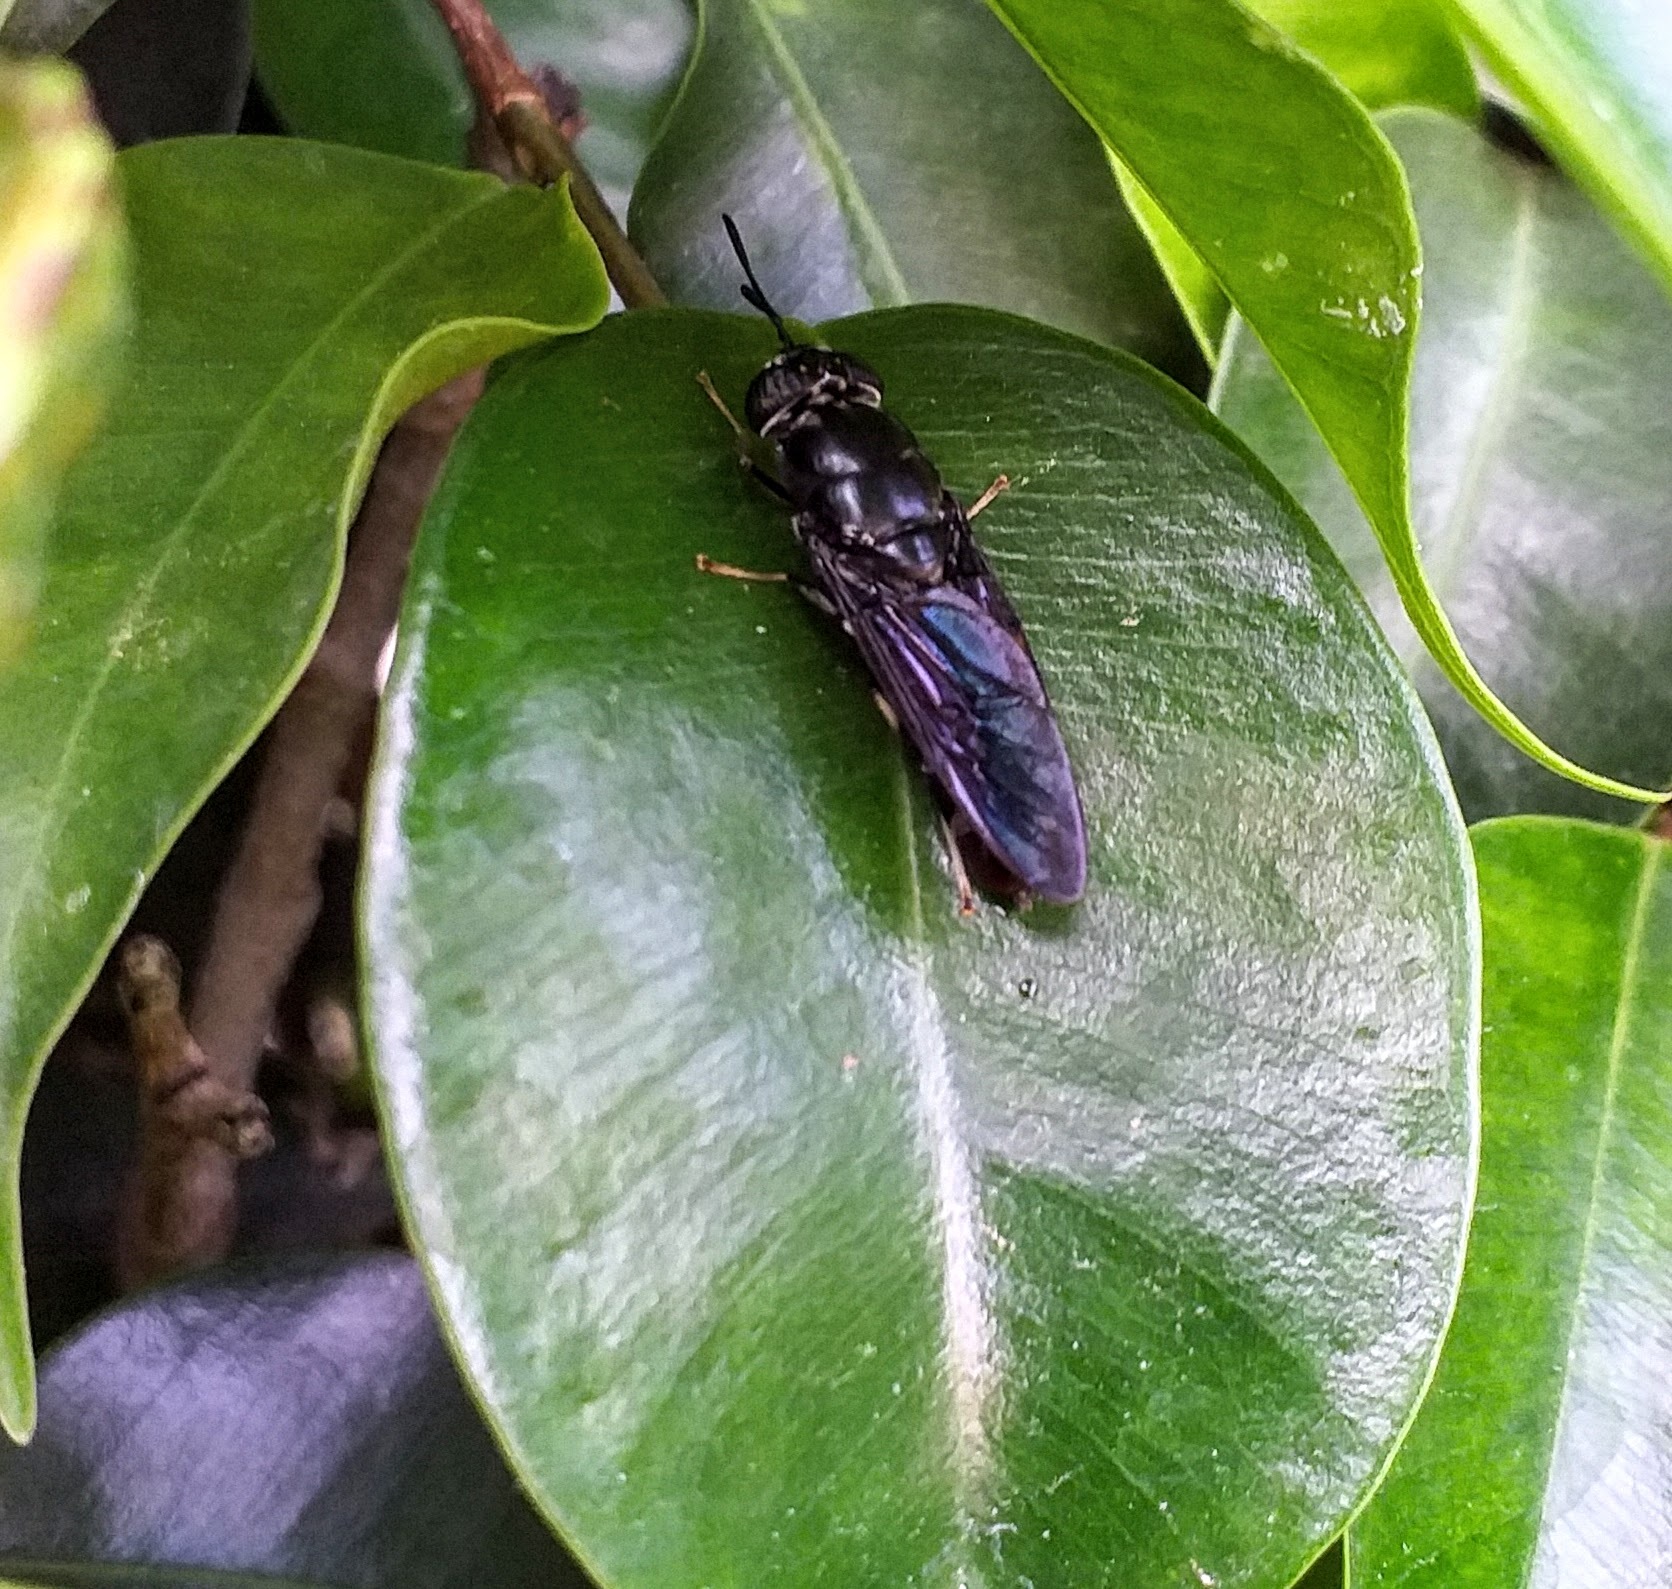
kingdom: Animalia
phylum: Arthropoda
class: Insecta
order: Diptera
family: Stratiomyidae
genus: Hermetia
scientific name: Hermetia illucens
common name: Black soldier fly
